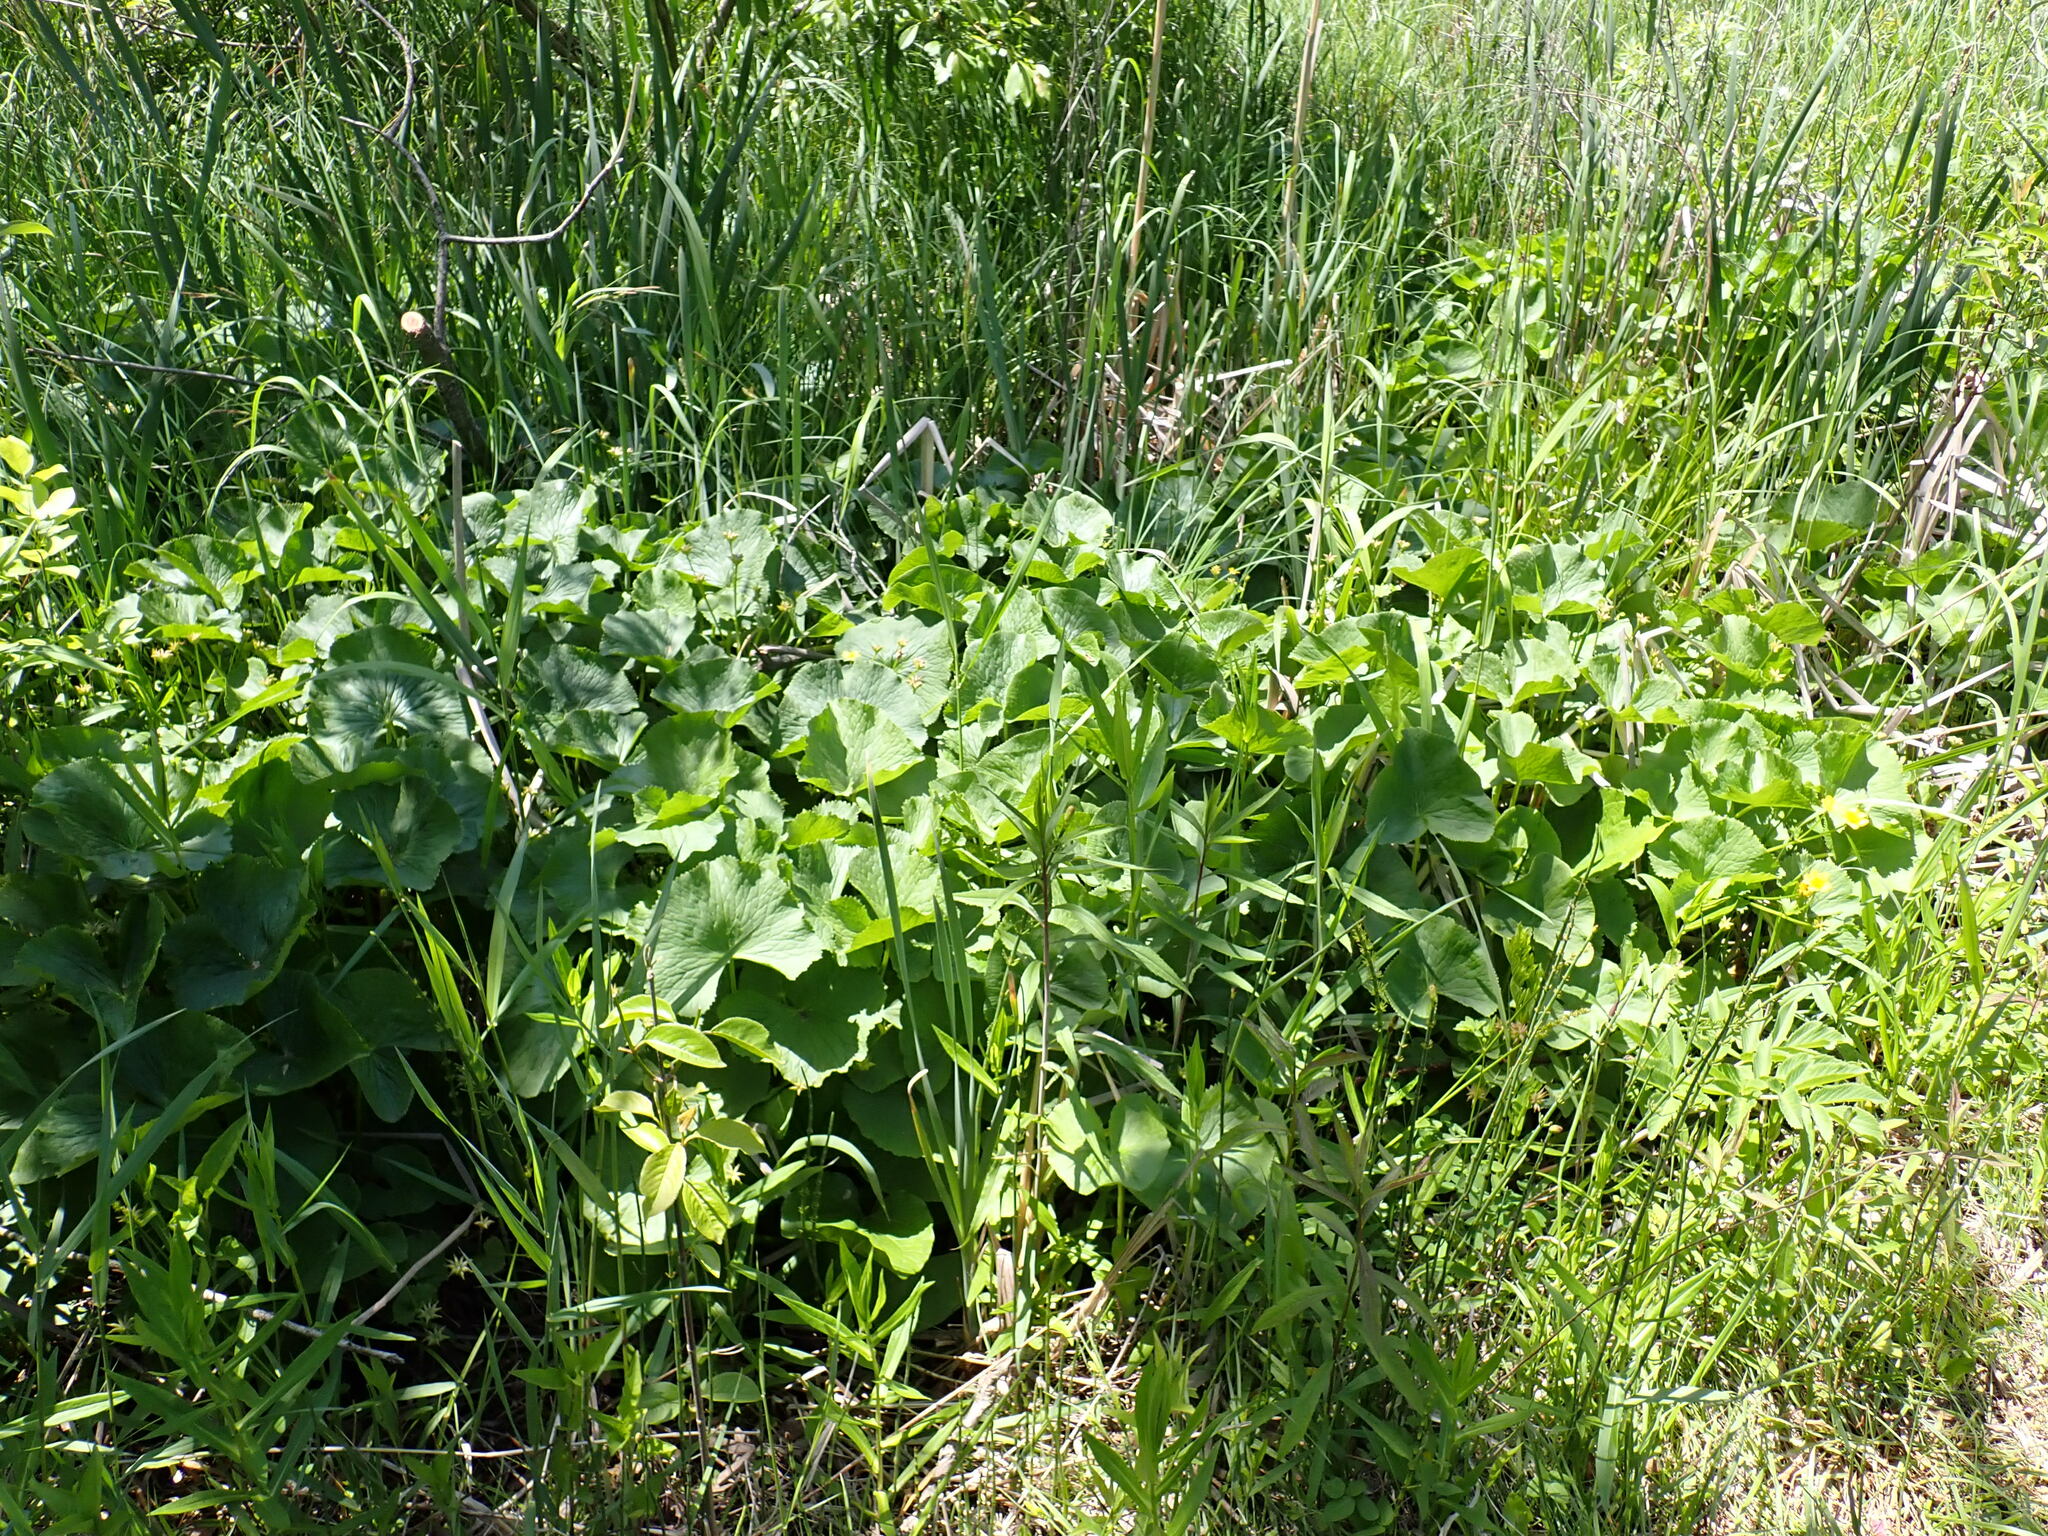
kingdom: Plantae
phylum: Tracheophyta
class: Magnoliopsida
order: Ranunculales
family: Ranunculaceae
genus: Caltha
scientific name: Caltha palustris
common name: Marsh marigold
